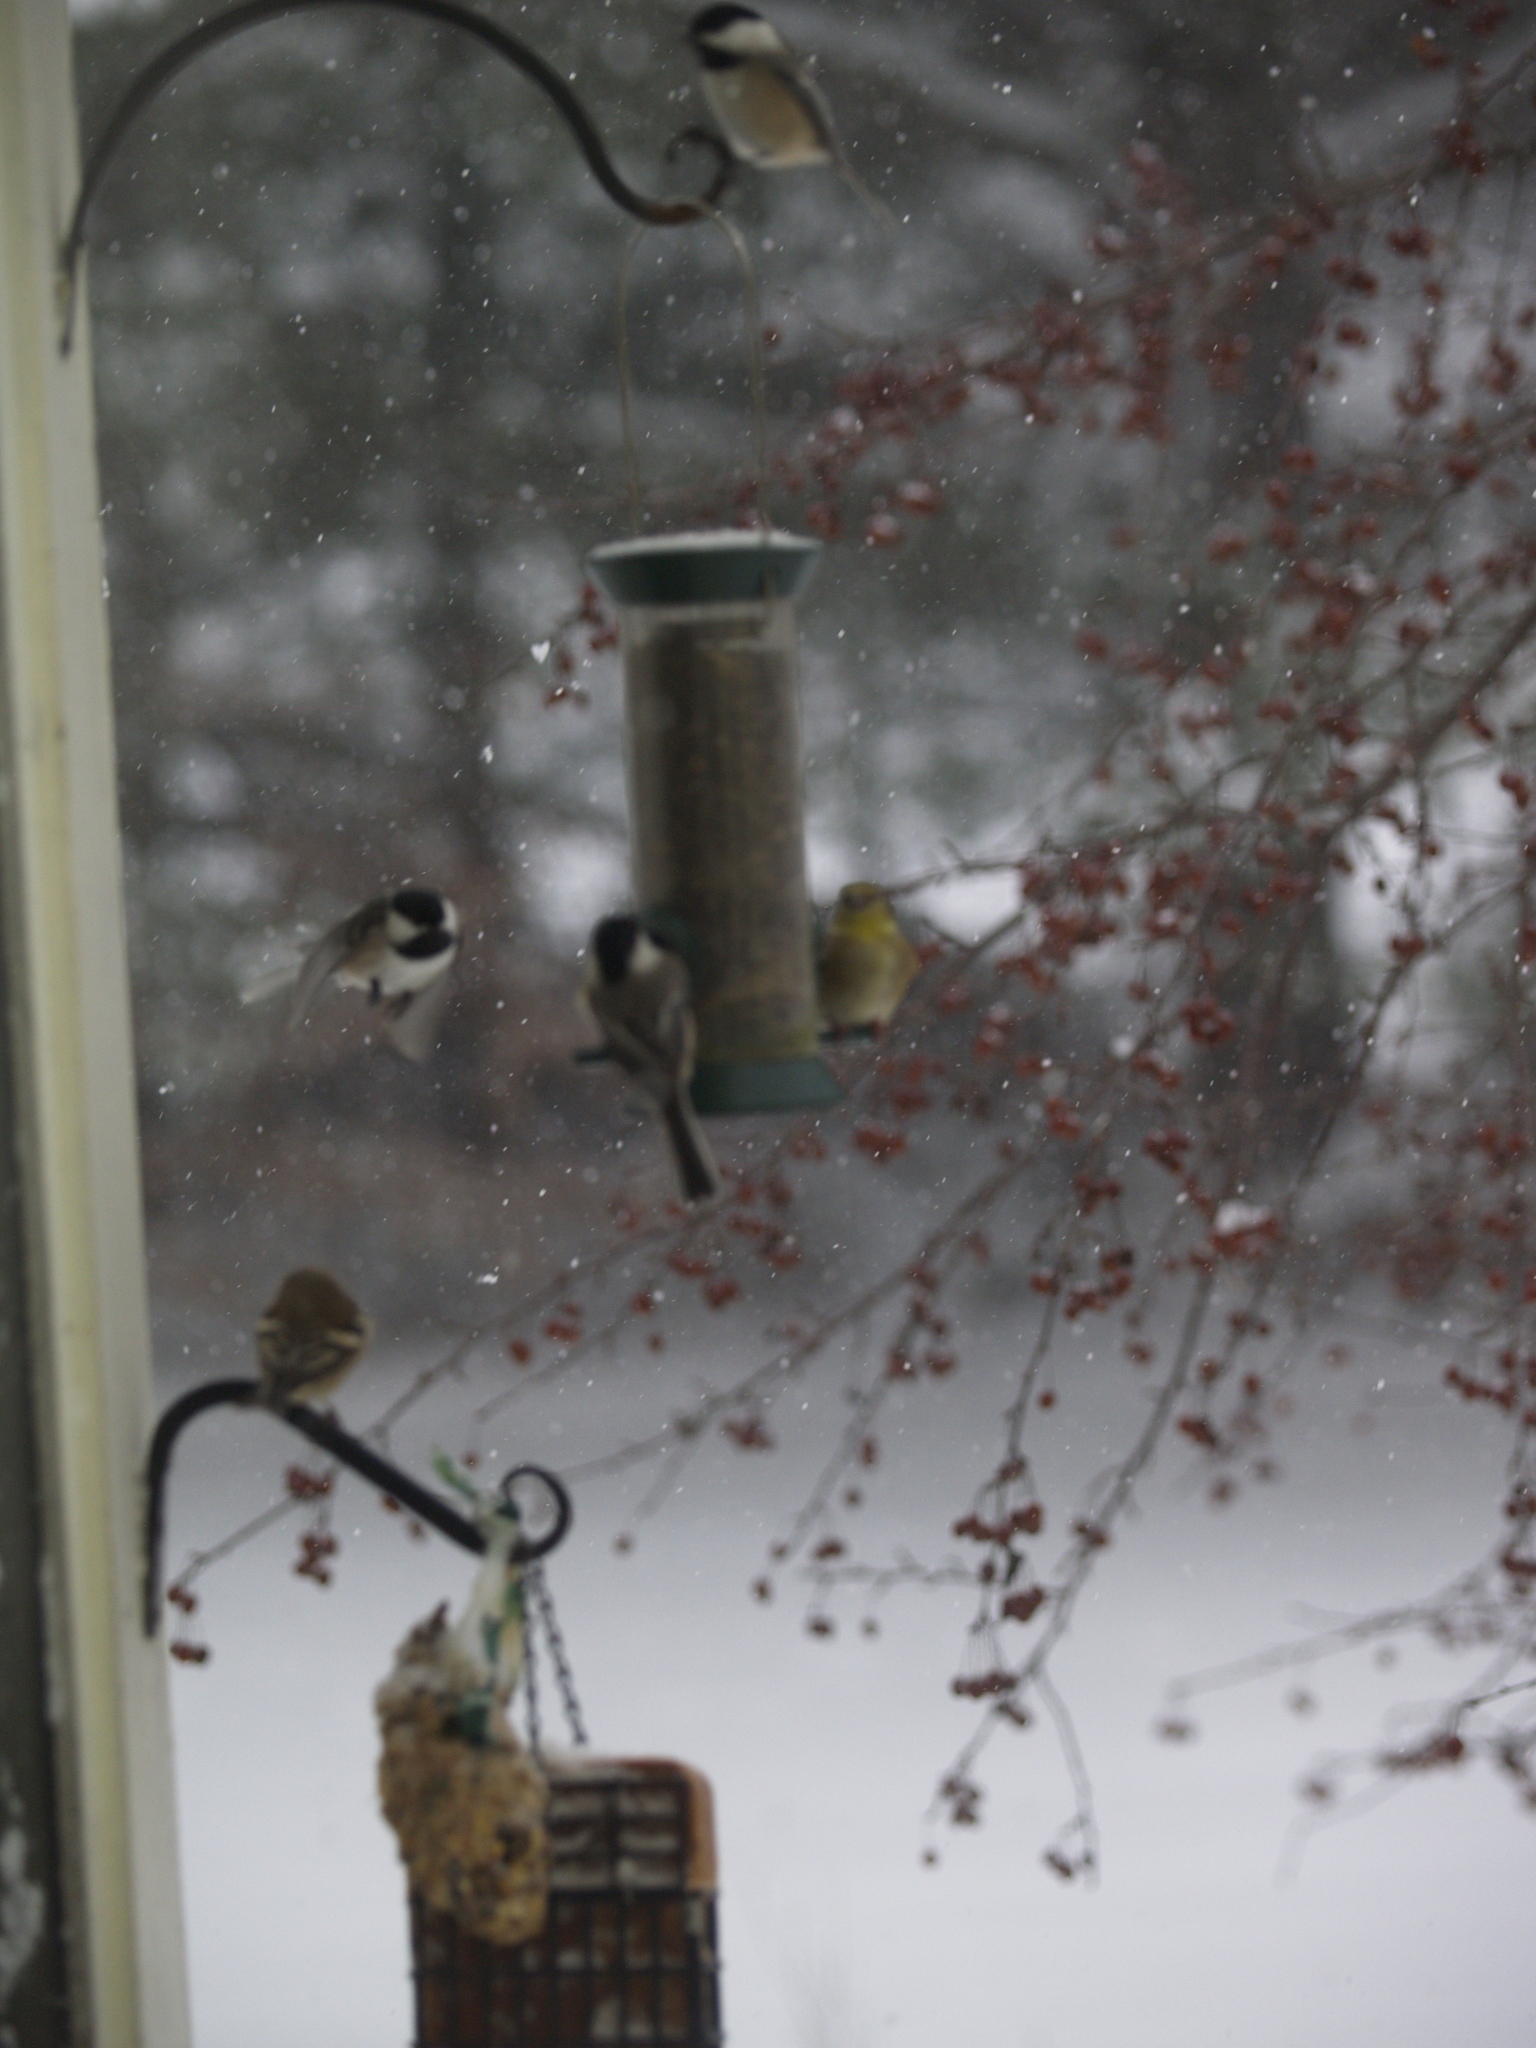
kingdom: Animalia
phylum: Chordata
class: Aves
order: Passeriformes
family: Paridae
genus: Poecile
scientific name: Poecile atricapillus
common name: Black-capped chickadee
